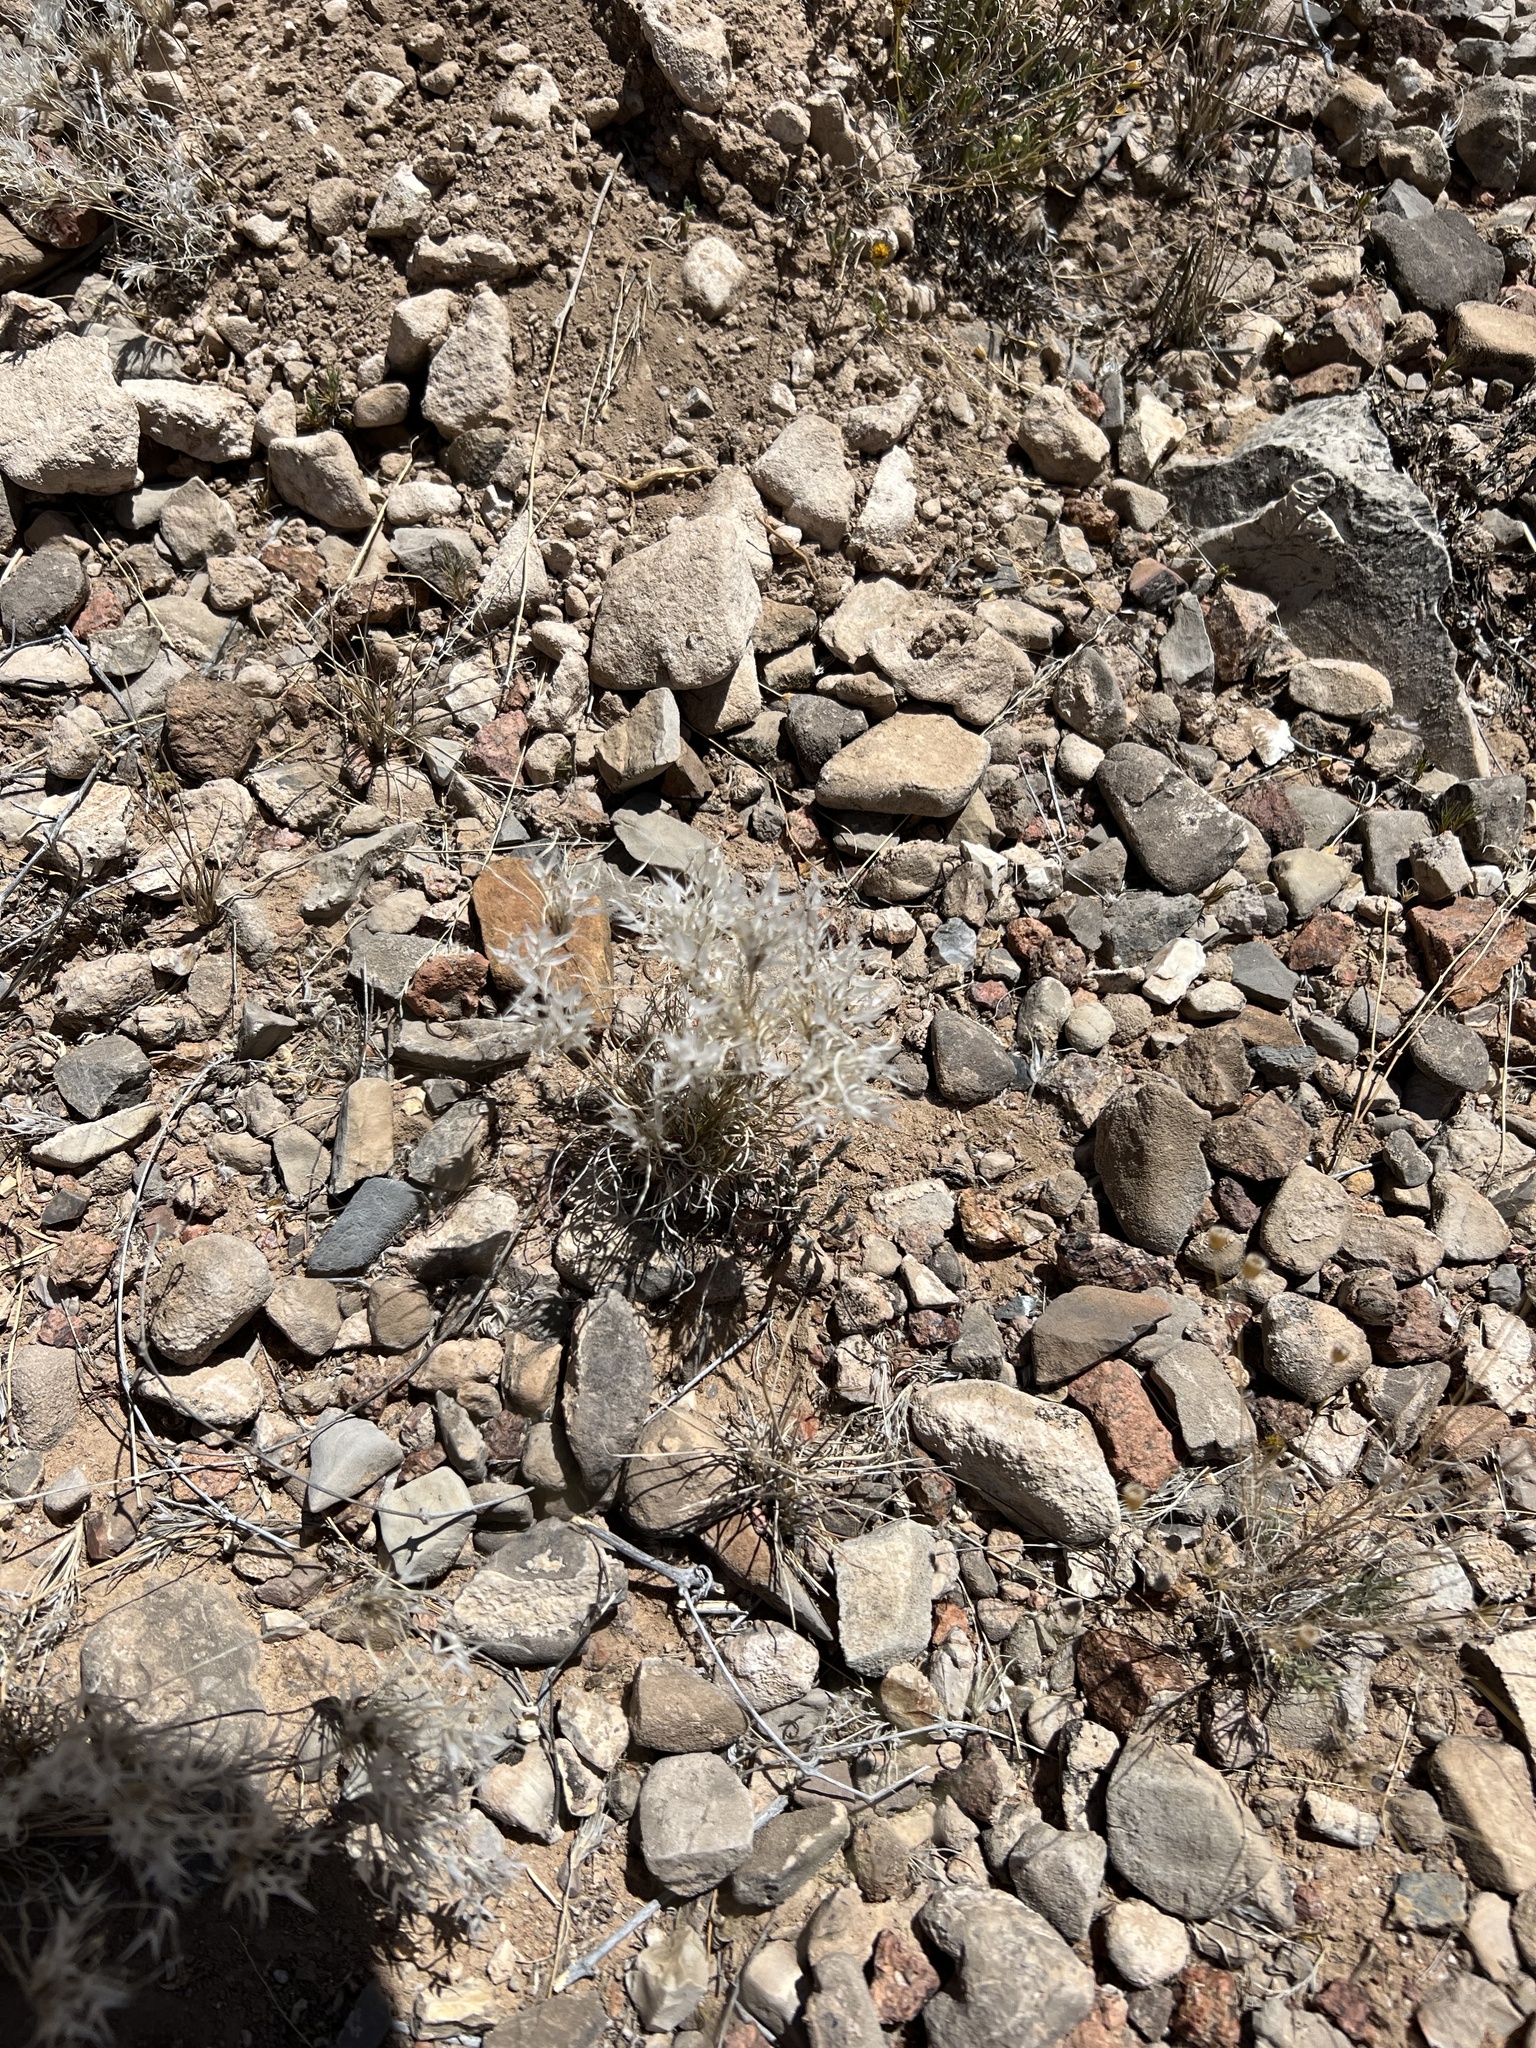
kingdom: Plantae
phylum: Tracheophyta
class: Liliopsida
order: Poales
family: Poaceae
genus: Dasyochloa
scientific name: Dasyochloa pulchella
